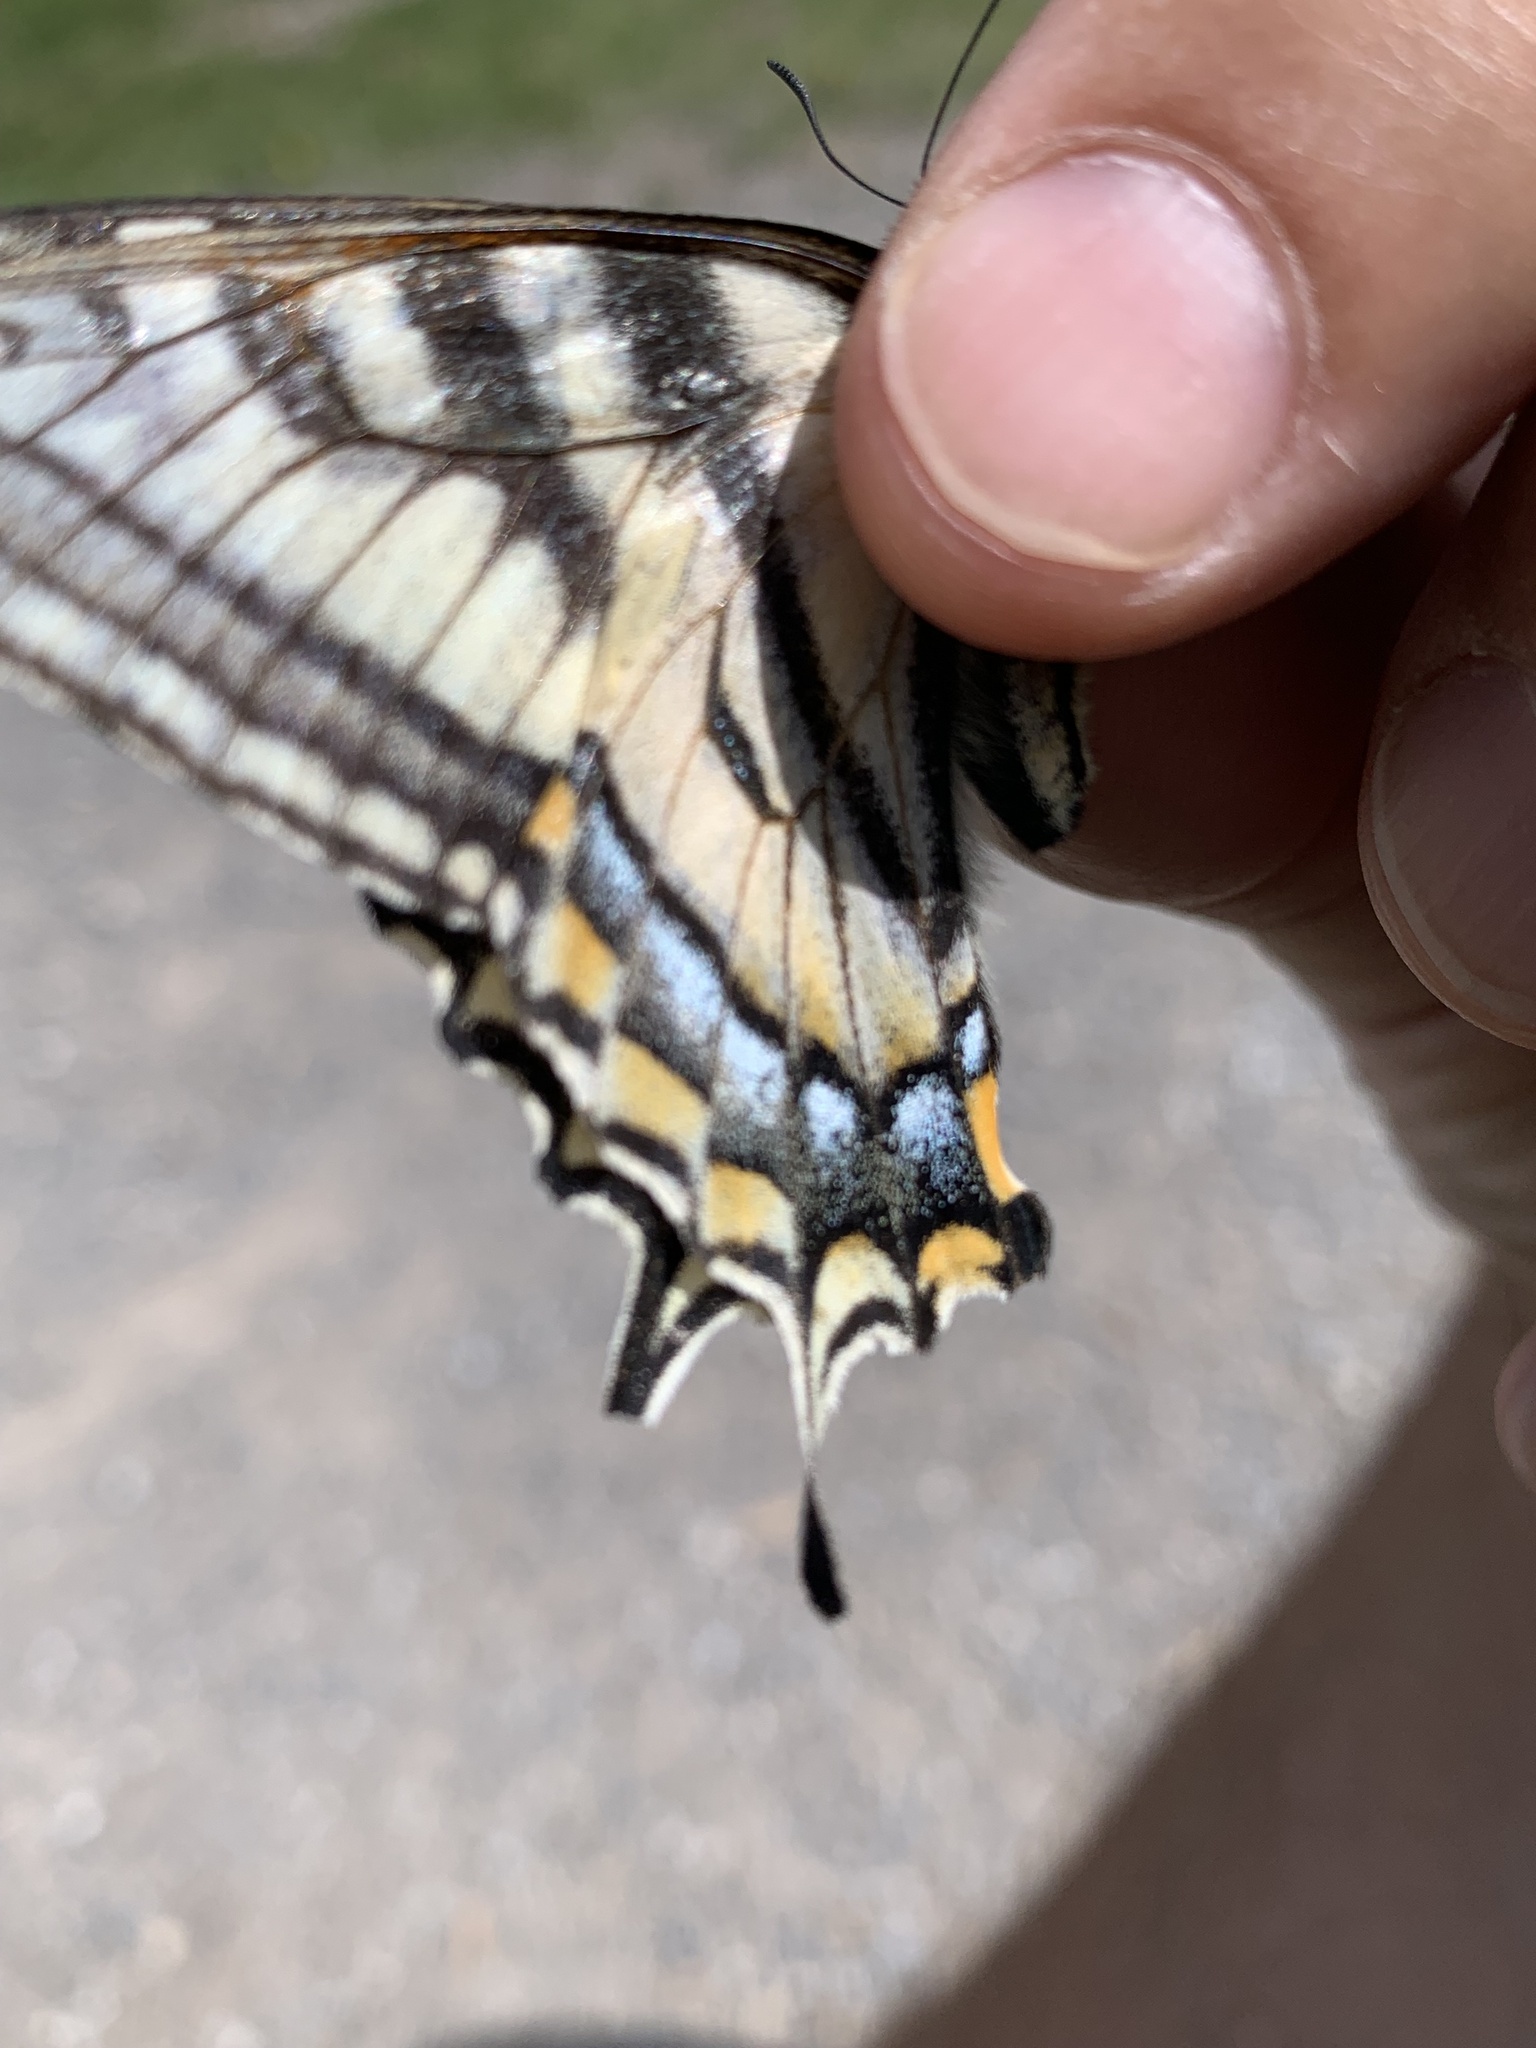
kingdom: Animalia
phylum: Arthropoda
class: Insecta
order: Lepidoptera
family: Papilionidae
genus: Papilio
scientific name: Papilio canadensis
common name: Canadian tiger swallowtail
